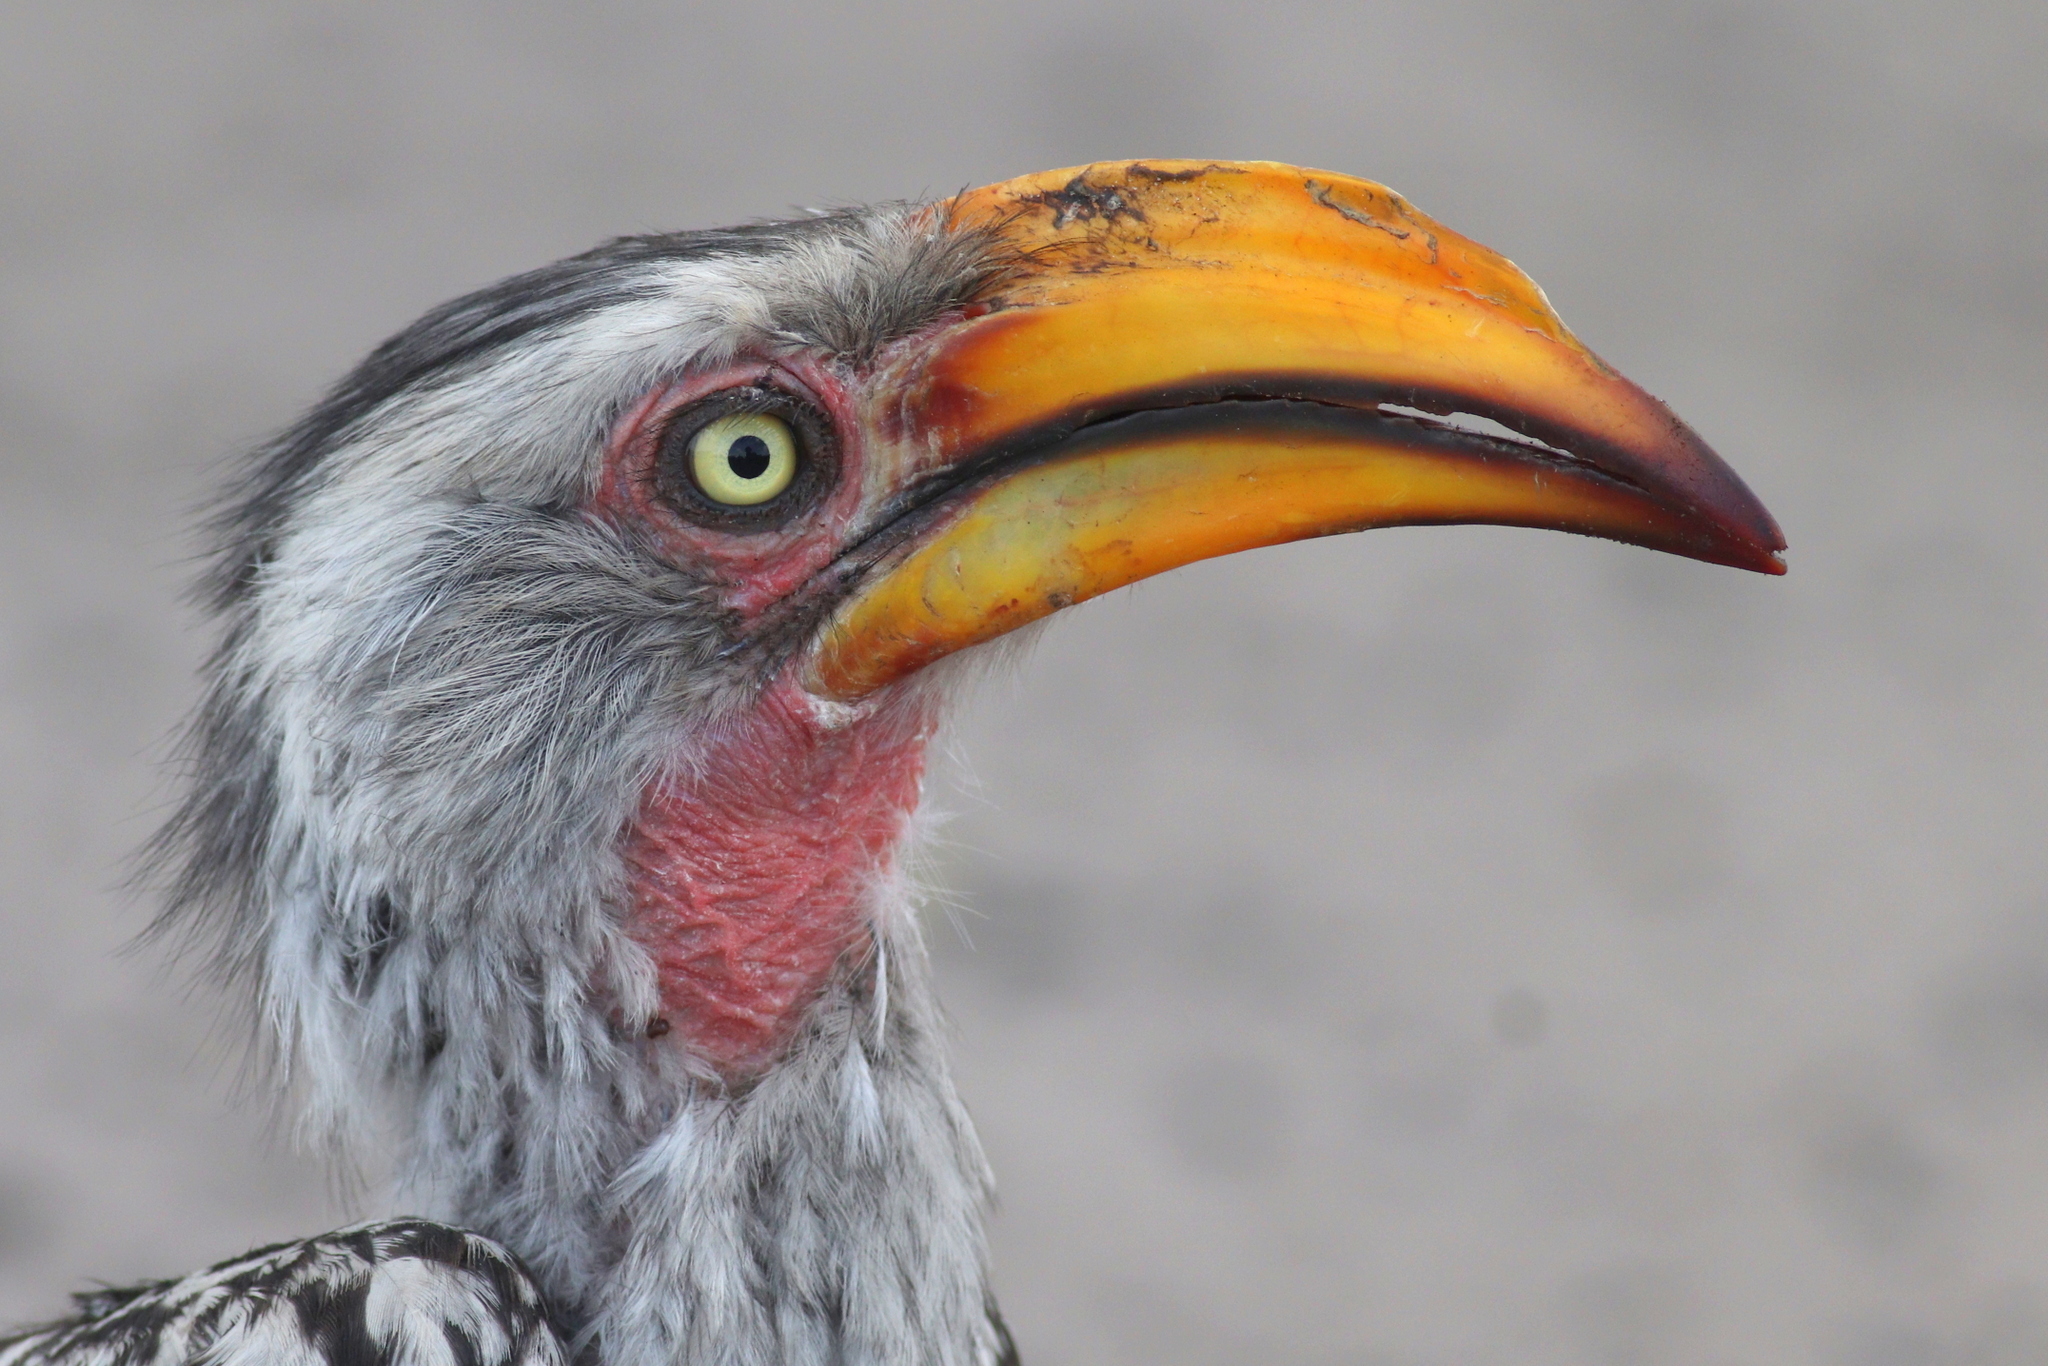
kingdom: Animalia
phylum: Chordata
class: Aves
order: Bucerotiformes
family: Bucerotidae
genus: Tockus
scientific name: Tockus leucomelas
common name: Southern yellow-billed hornbill
